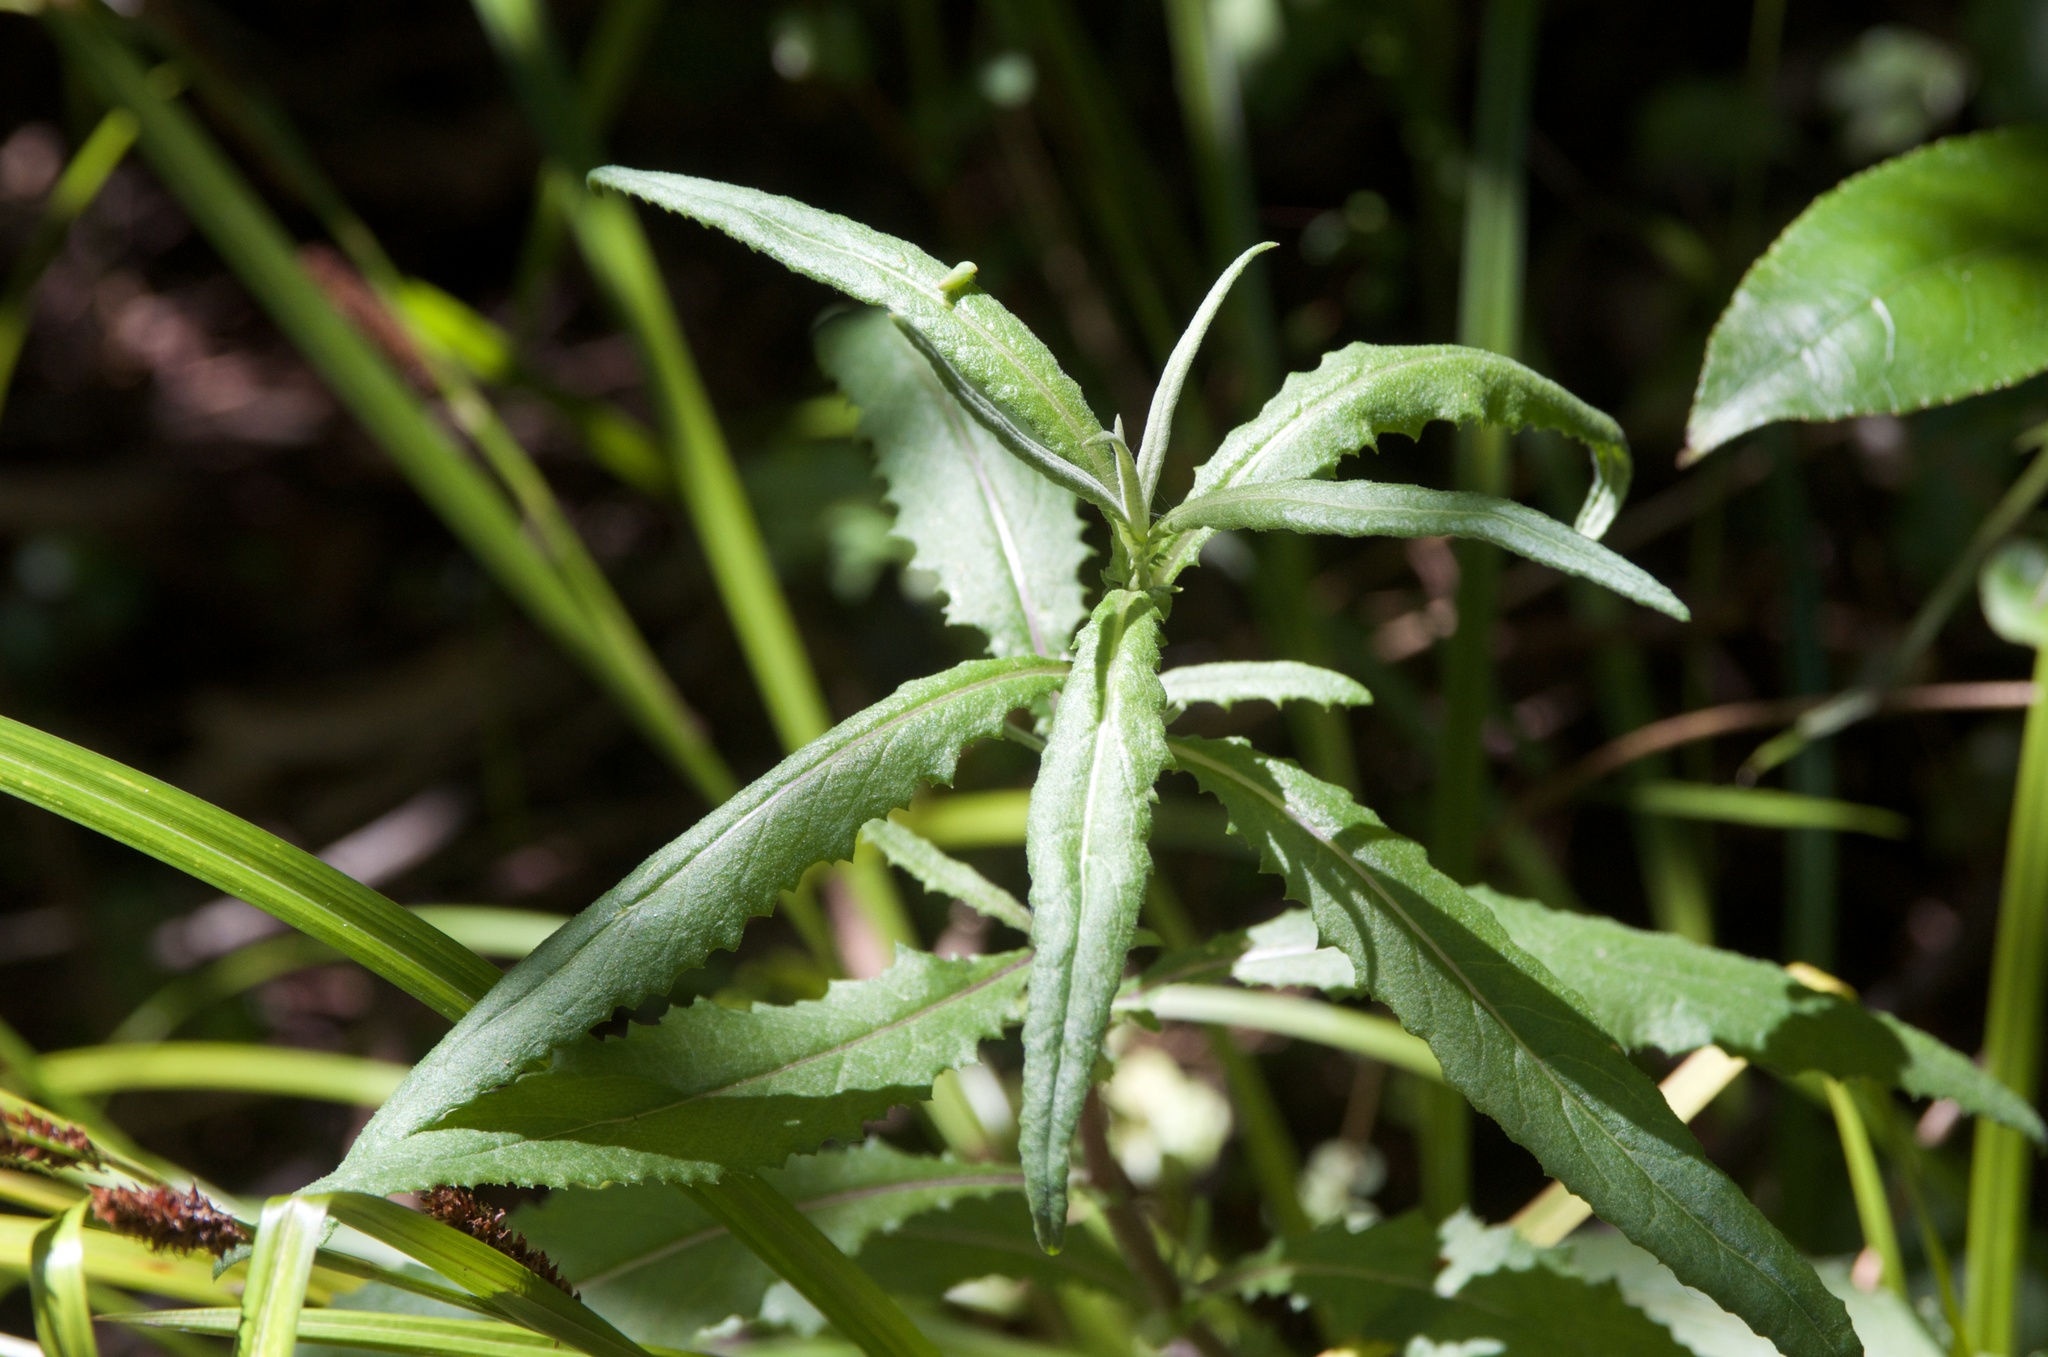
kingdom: Plantae
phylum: Tracheophyta
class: Magnoliopsida
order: Asterales
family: Asteraceae
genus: Senecio
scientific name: Senecio minimus
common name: Toothed fireweed
